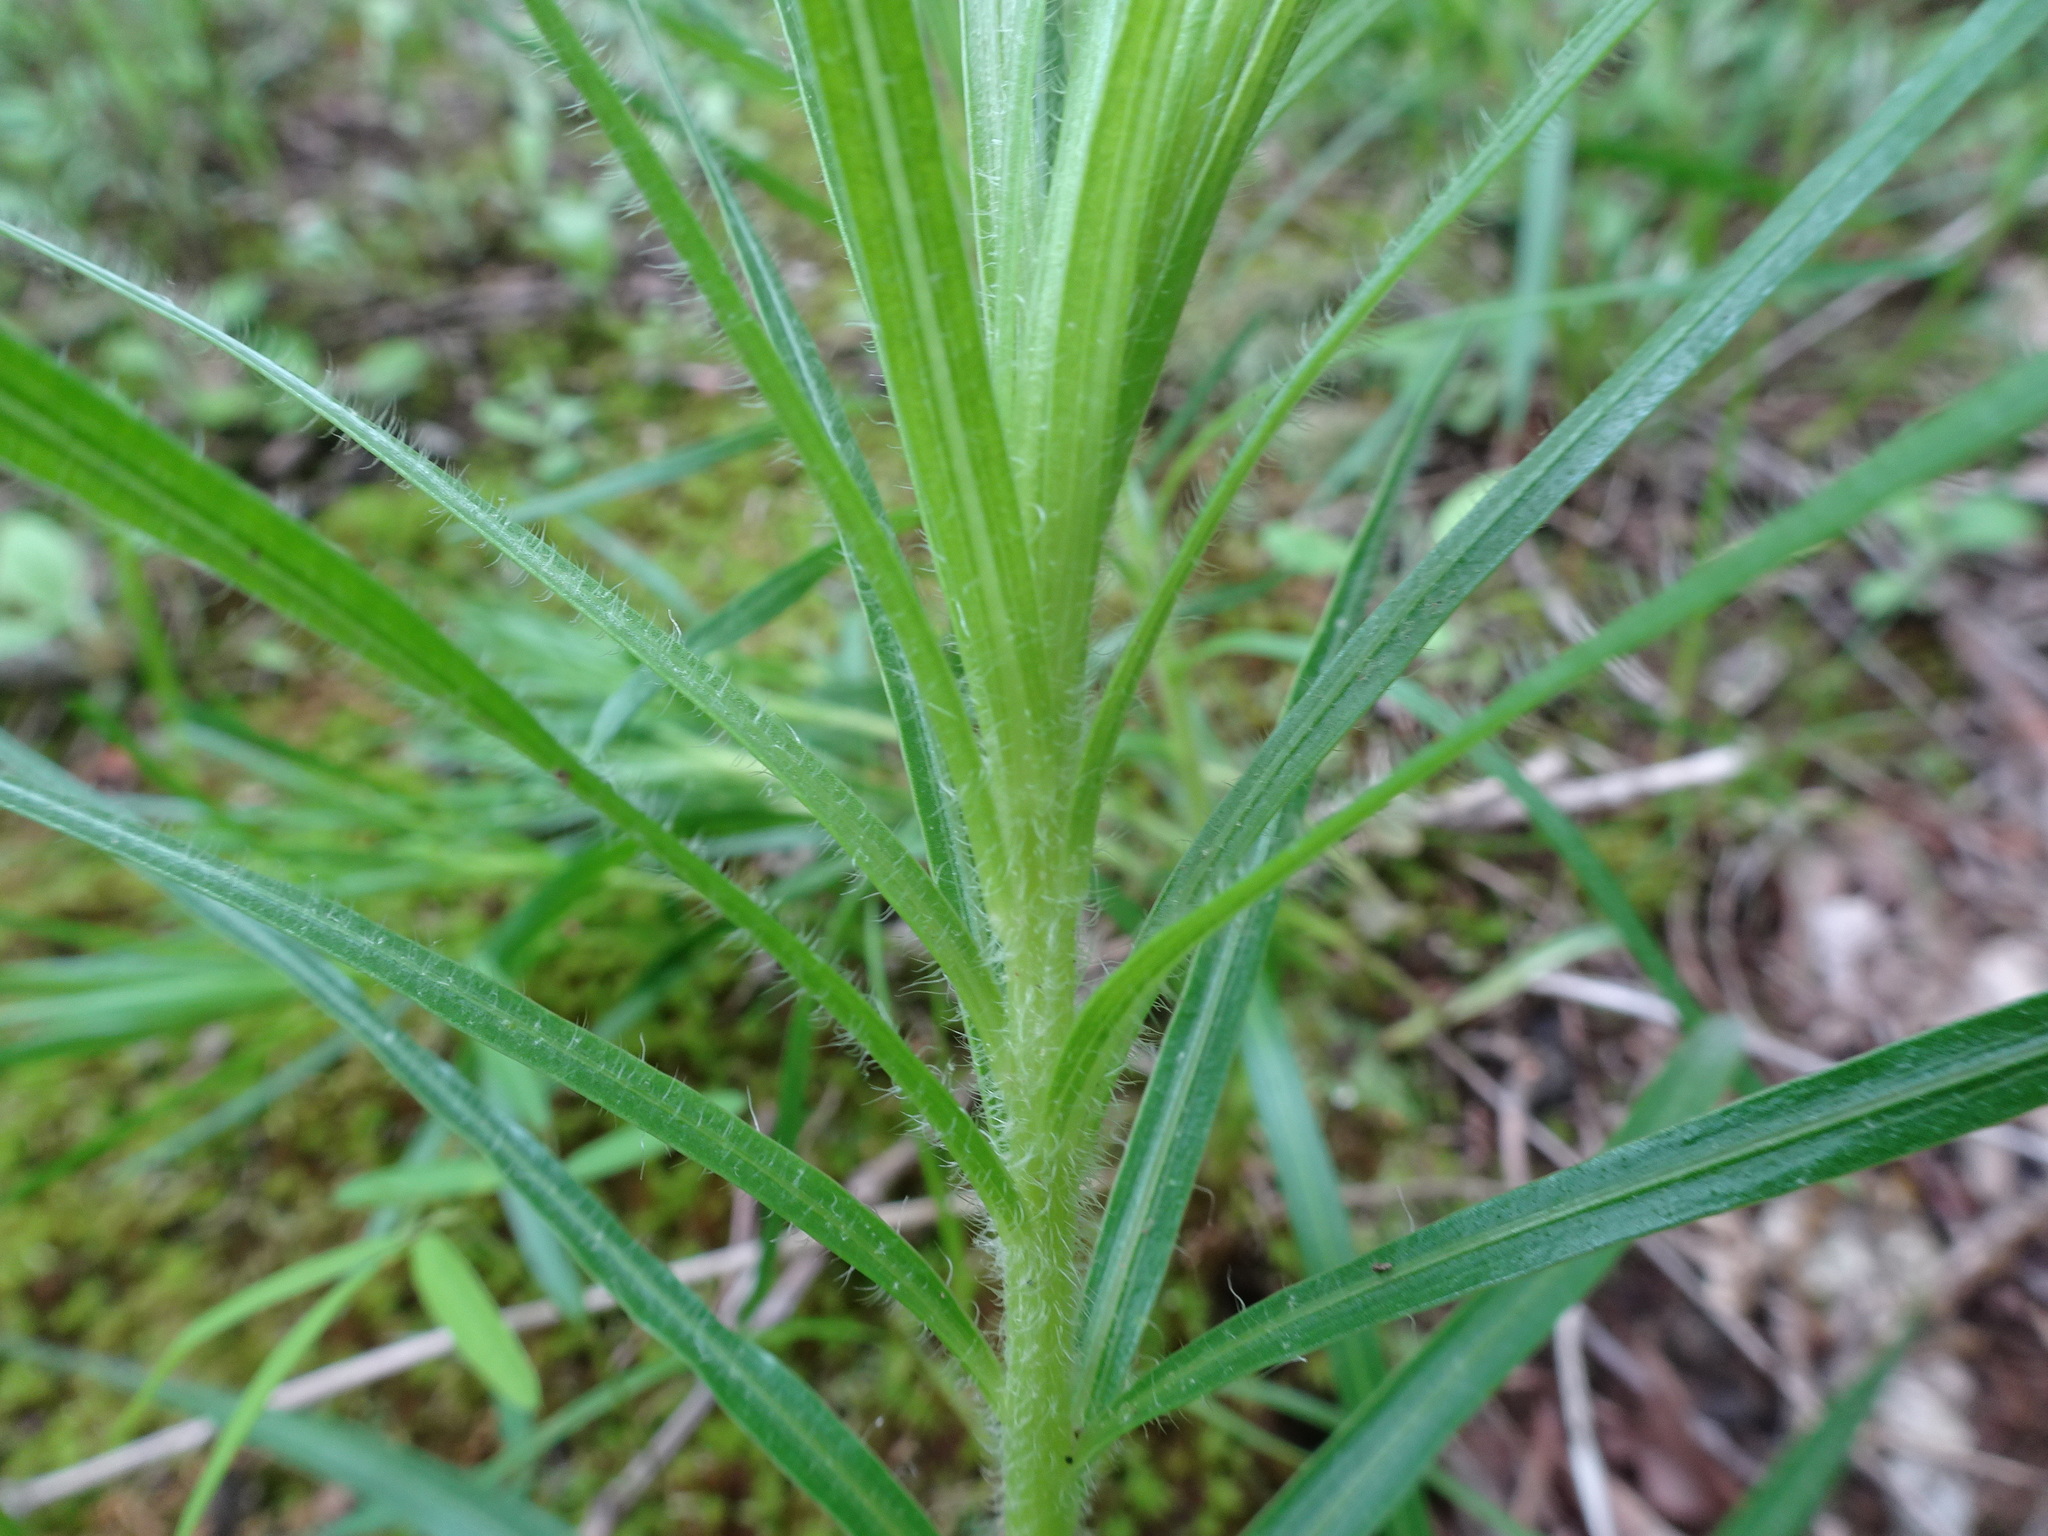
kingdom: Plantae
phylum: Tracheophyta
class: Magnoliopsida
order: Asterales
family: Asteraceae
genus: Liatris
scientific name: Liatris hirsuta
